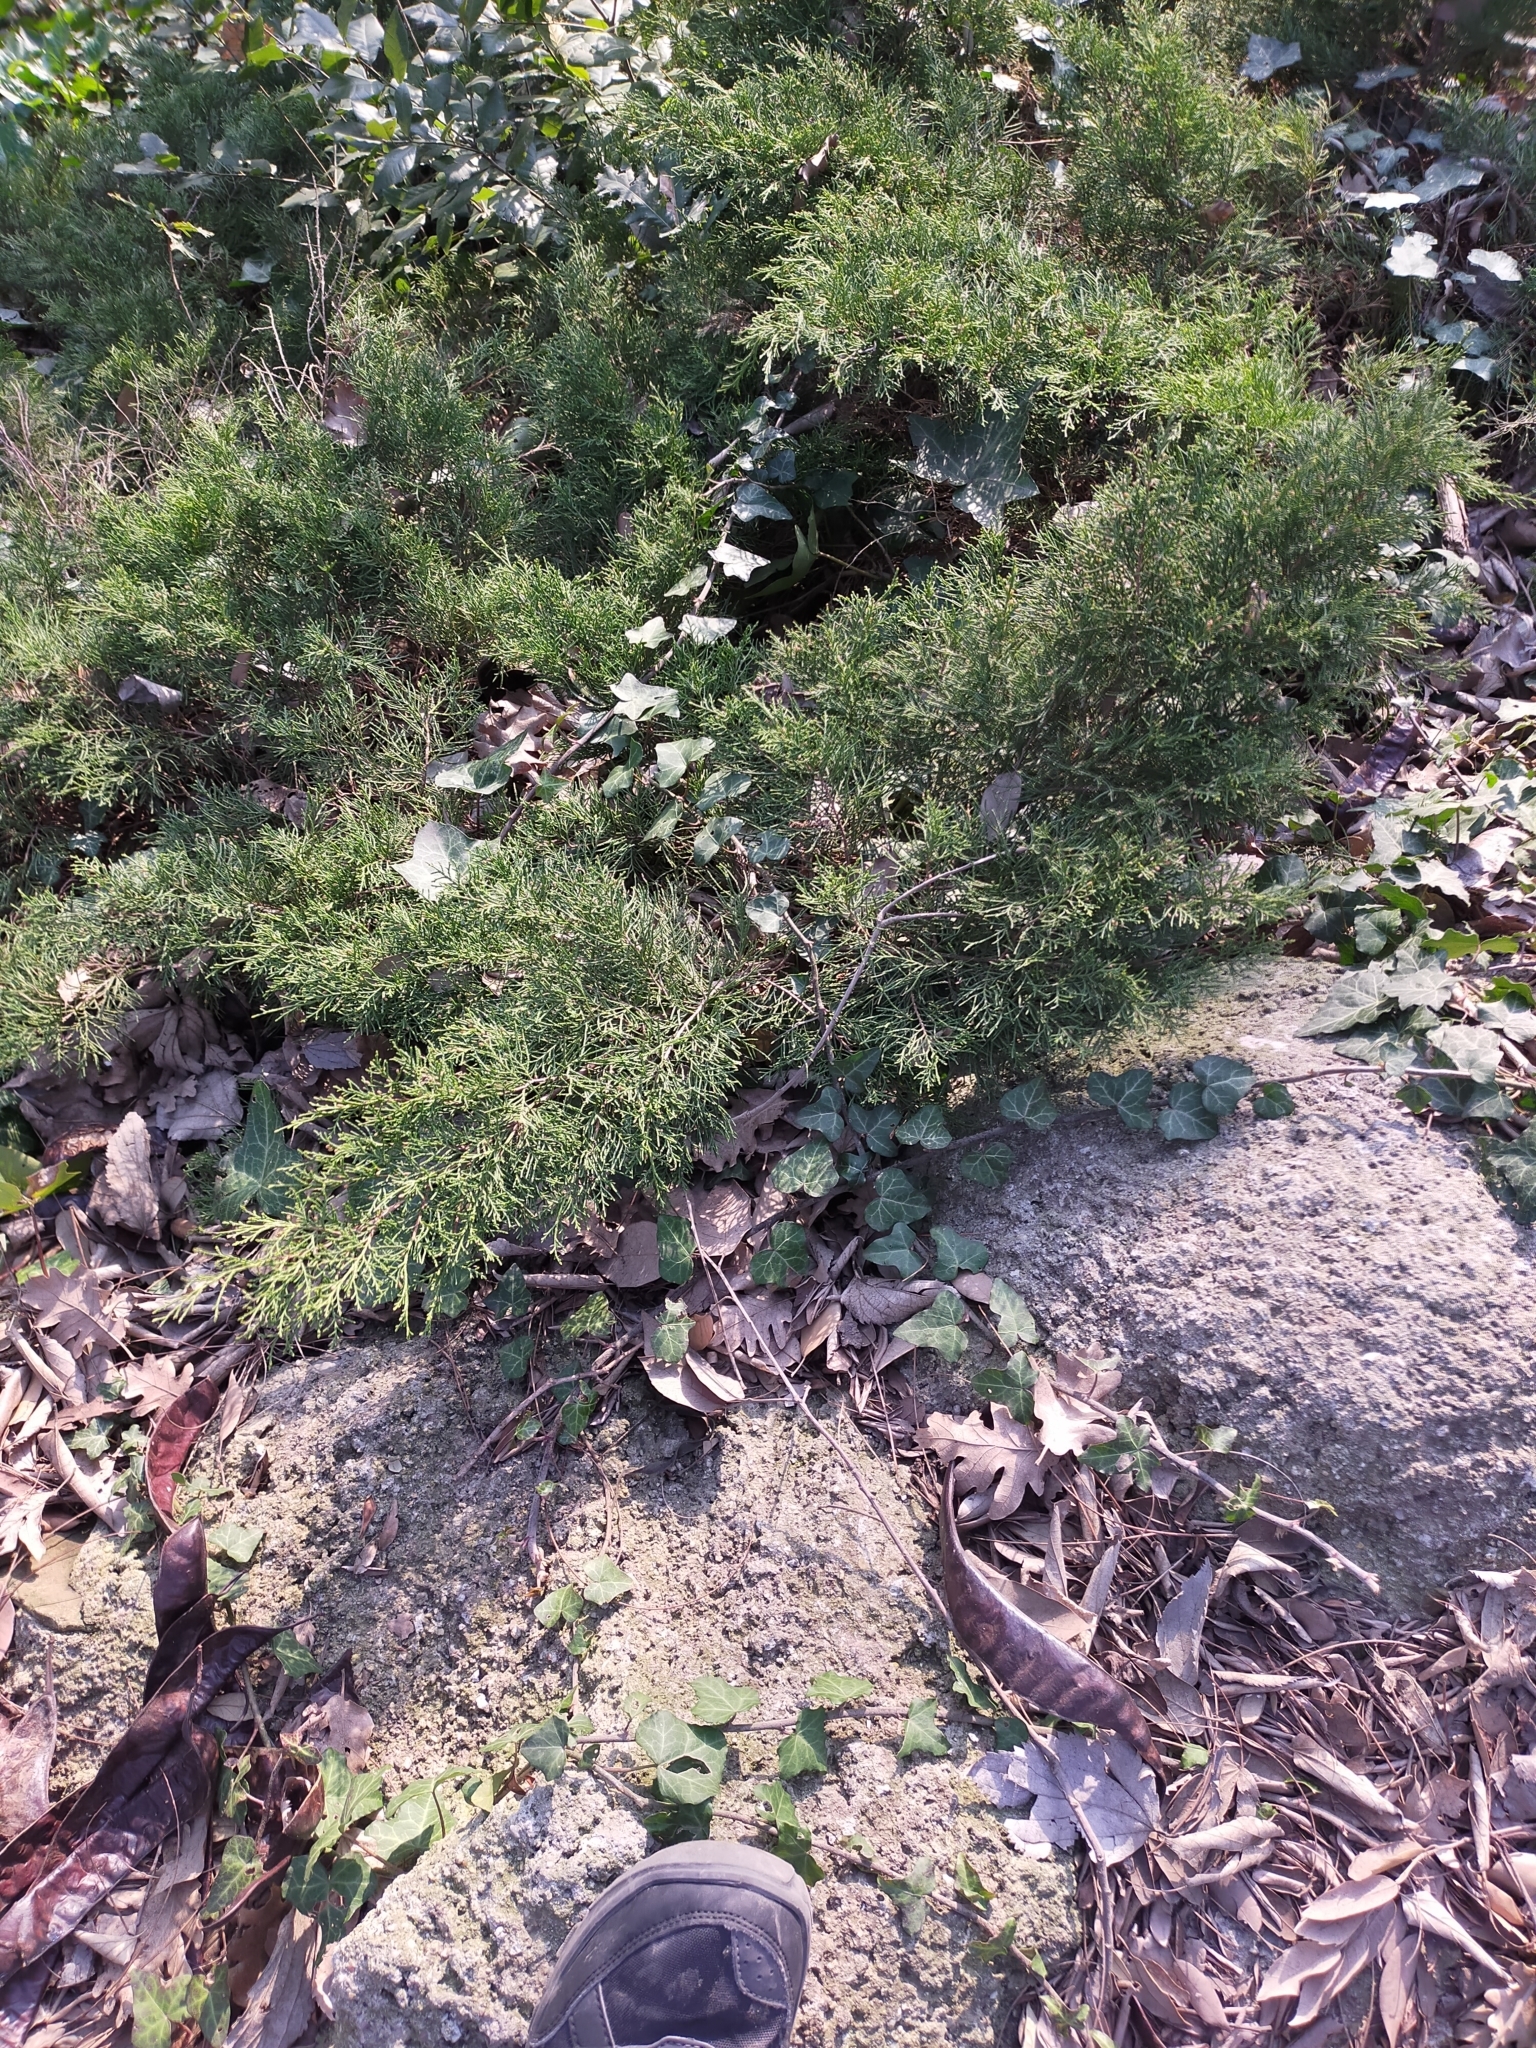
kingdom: Plantae
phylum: Tracheophyta
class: Pinopsida
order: Pinales
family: Cupressaceae
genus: Juniperus
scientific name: Juniperus
